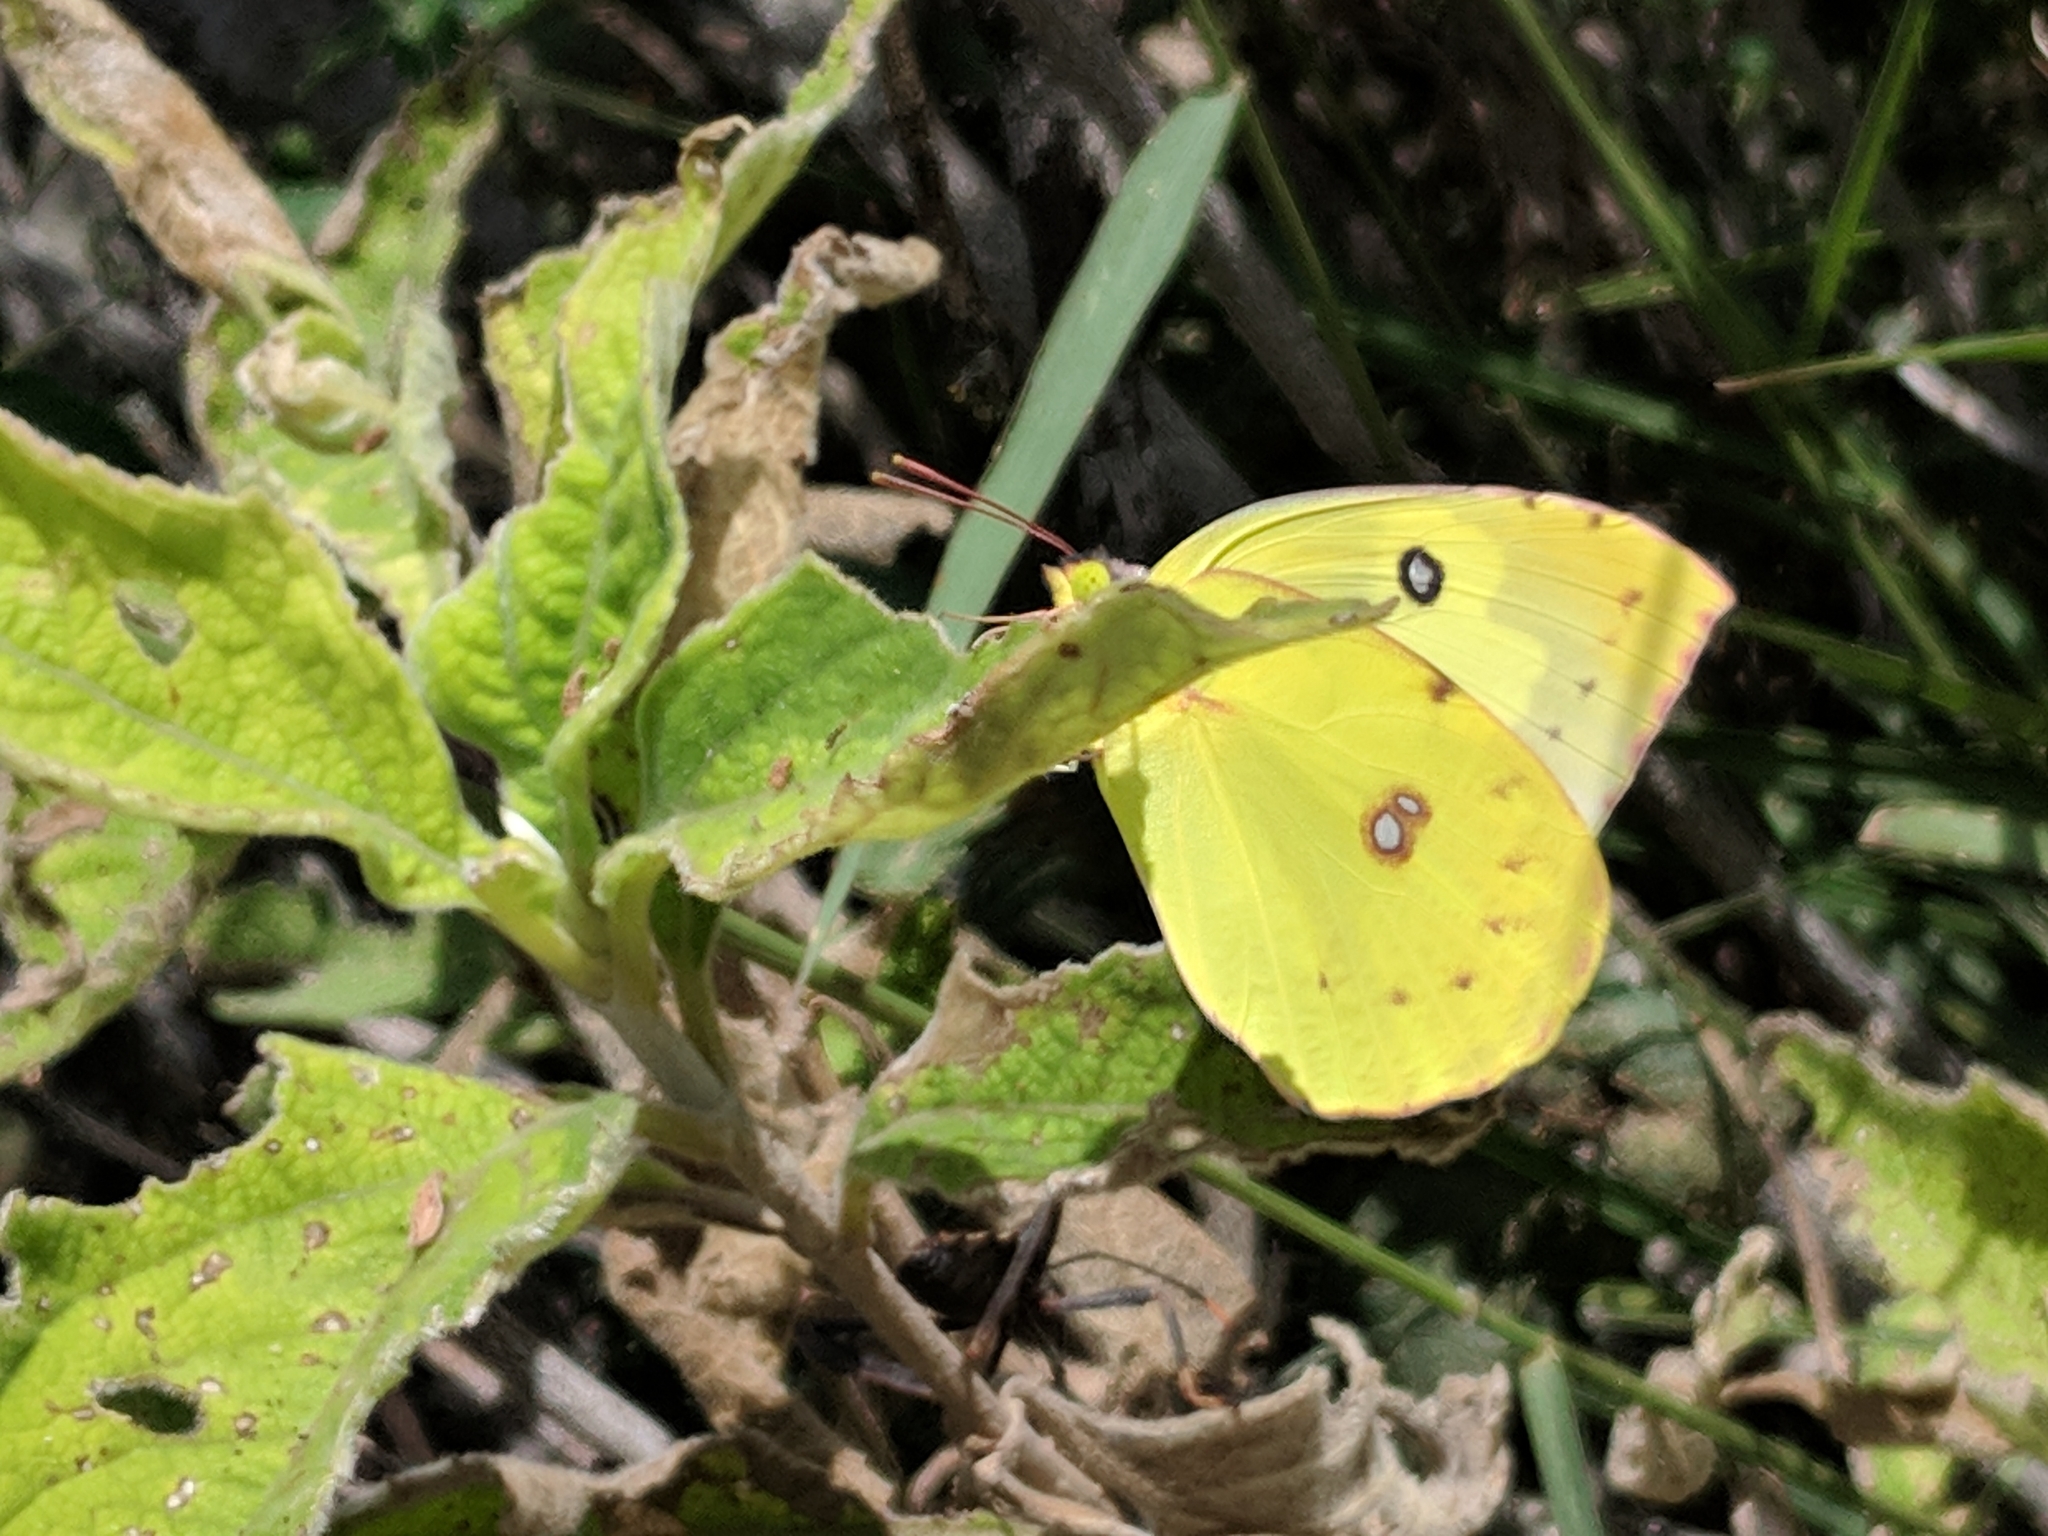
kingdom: Animalia
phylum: Arthropoda
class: Insecta
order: Lepidoptera
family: Pieridae
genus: Zerene
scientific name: Zerene cesonia
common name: Southern dogface
